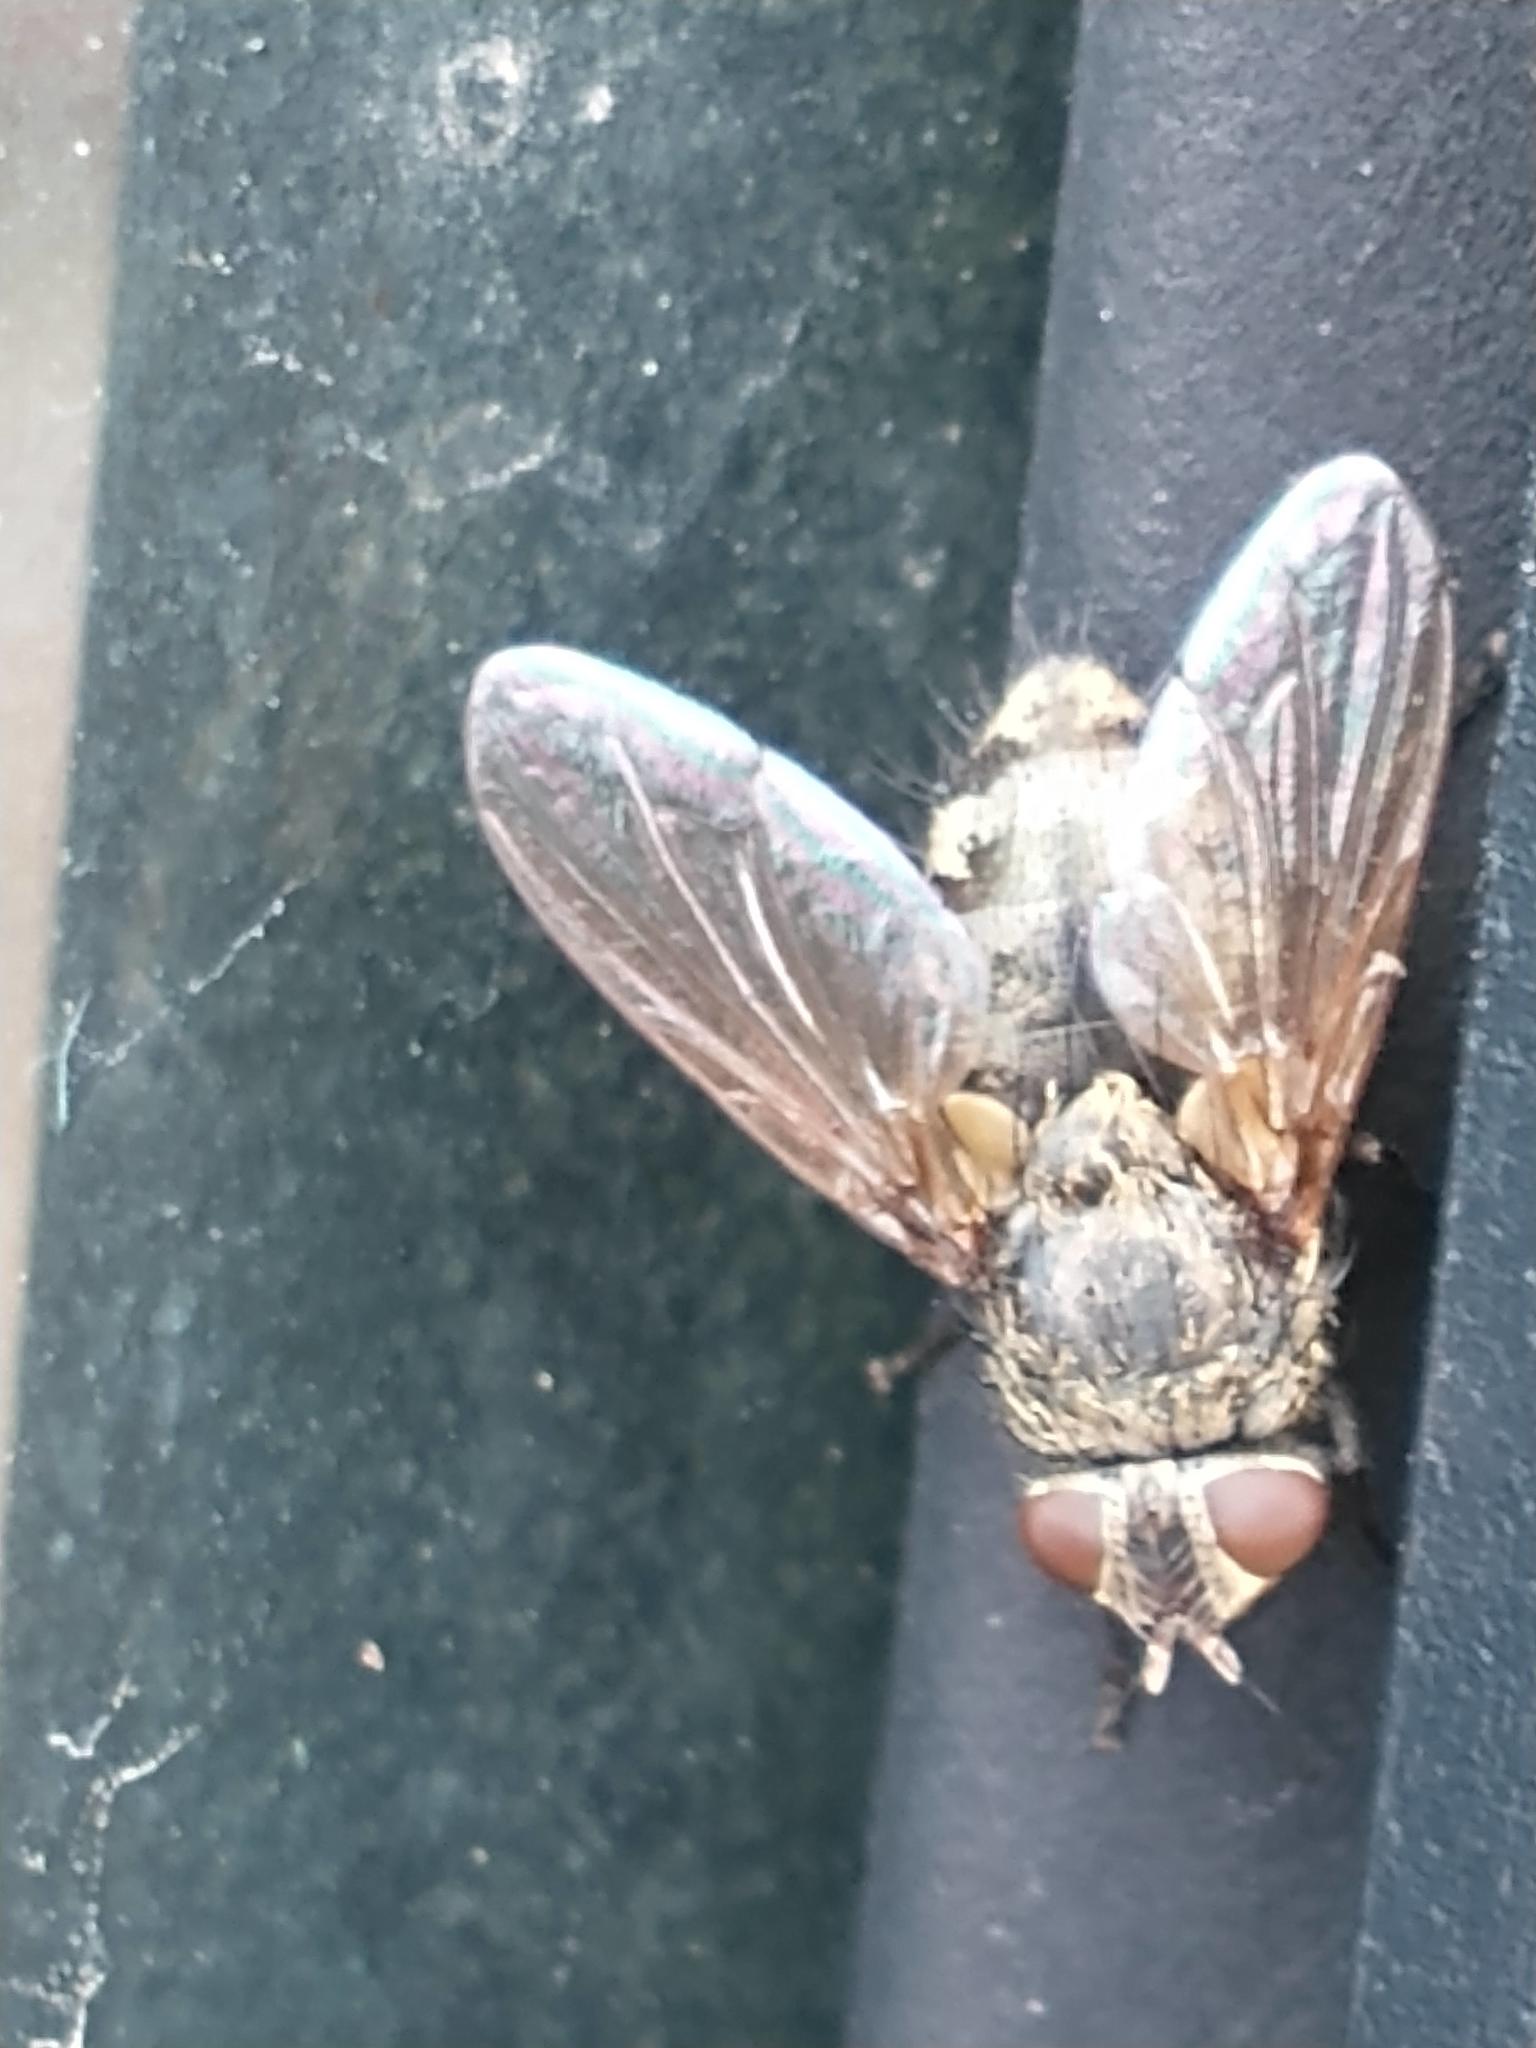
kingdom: Animalia
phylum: Arthropoda
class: Insecta
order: Diptera
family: Polleniidae
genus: Pollenia
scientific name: Pollenia
